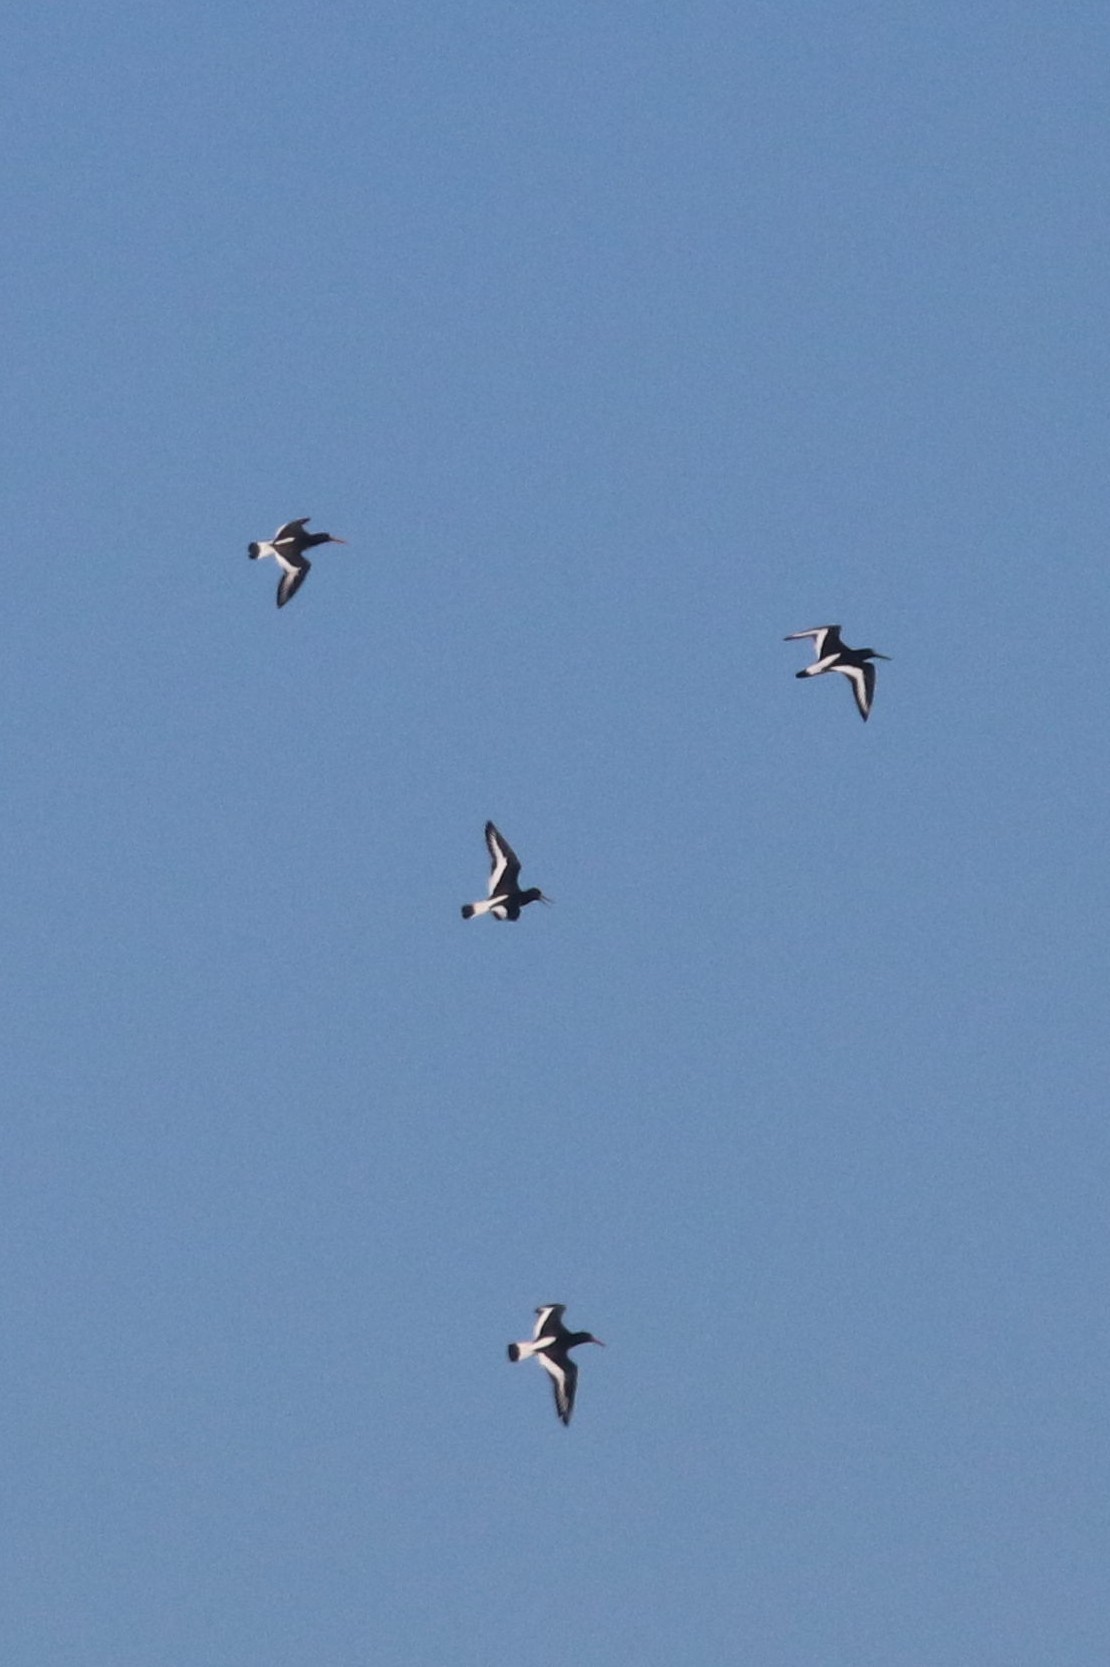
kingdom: Animalia
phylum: Chordata
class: Aves
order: Charadriiformes
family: Haematopodidae
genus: Haematopus
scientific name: Haematopus ostralegus
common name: Eurasian oystercatcher
